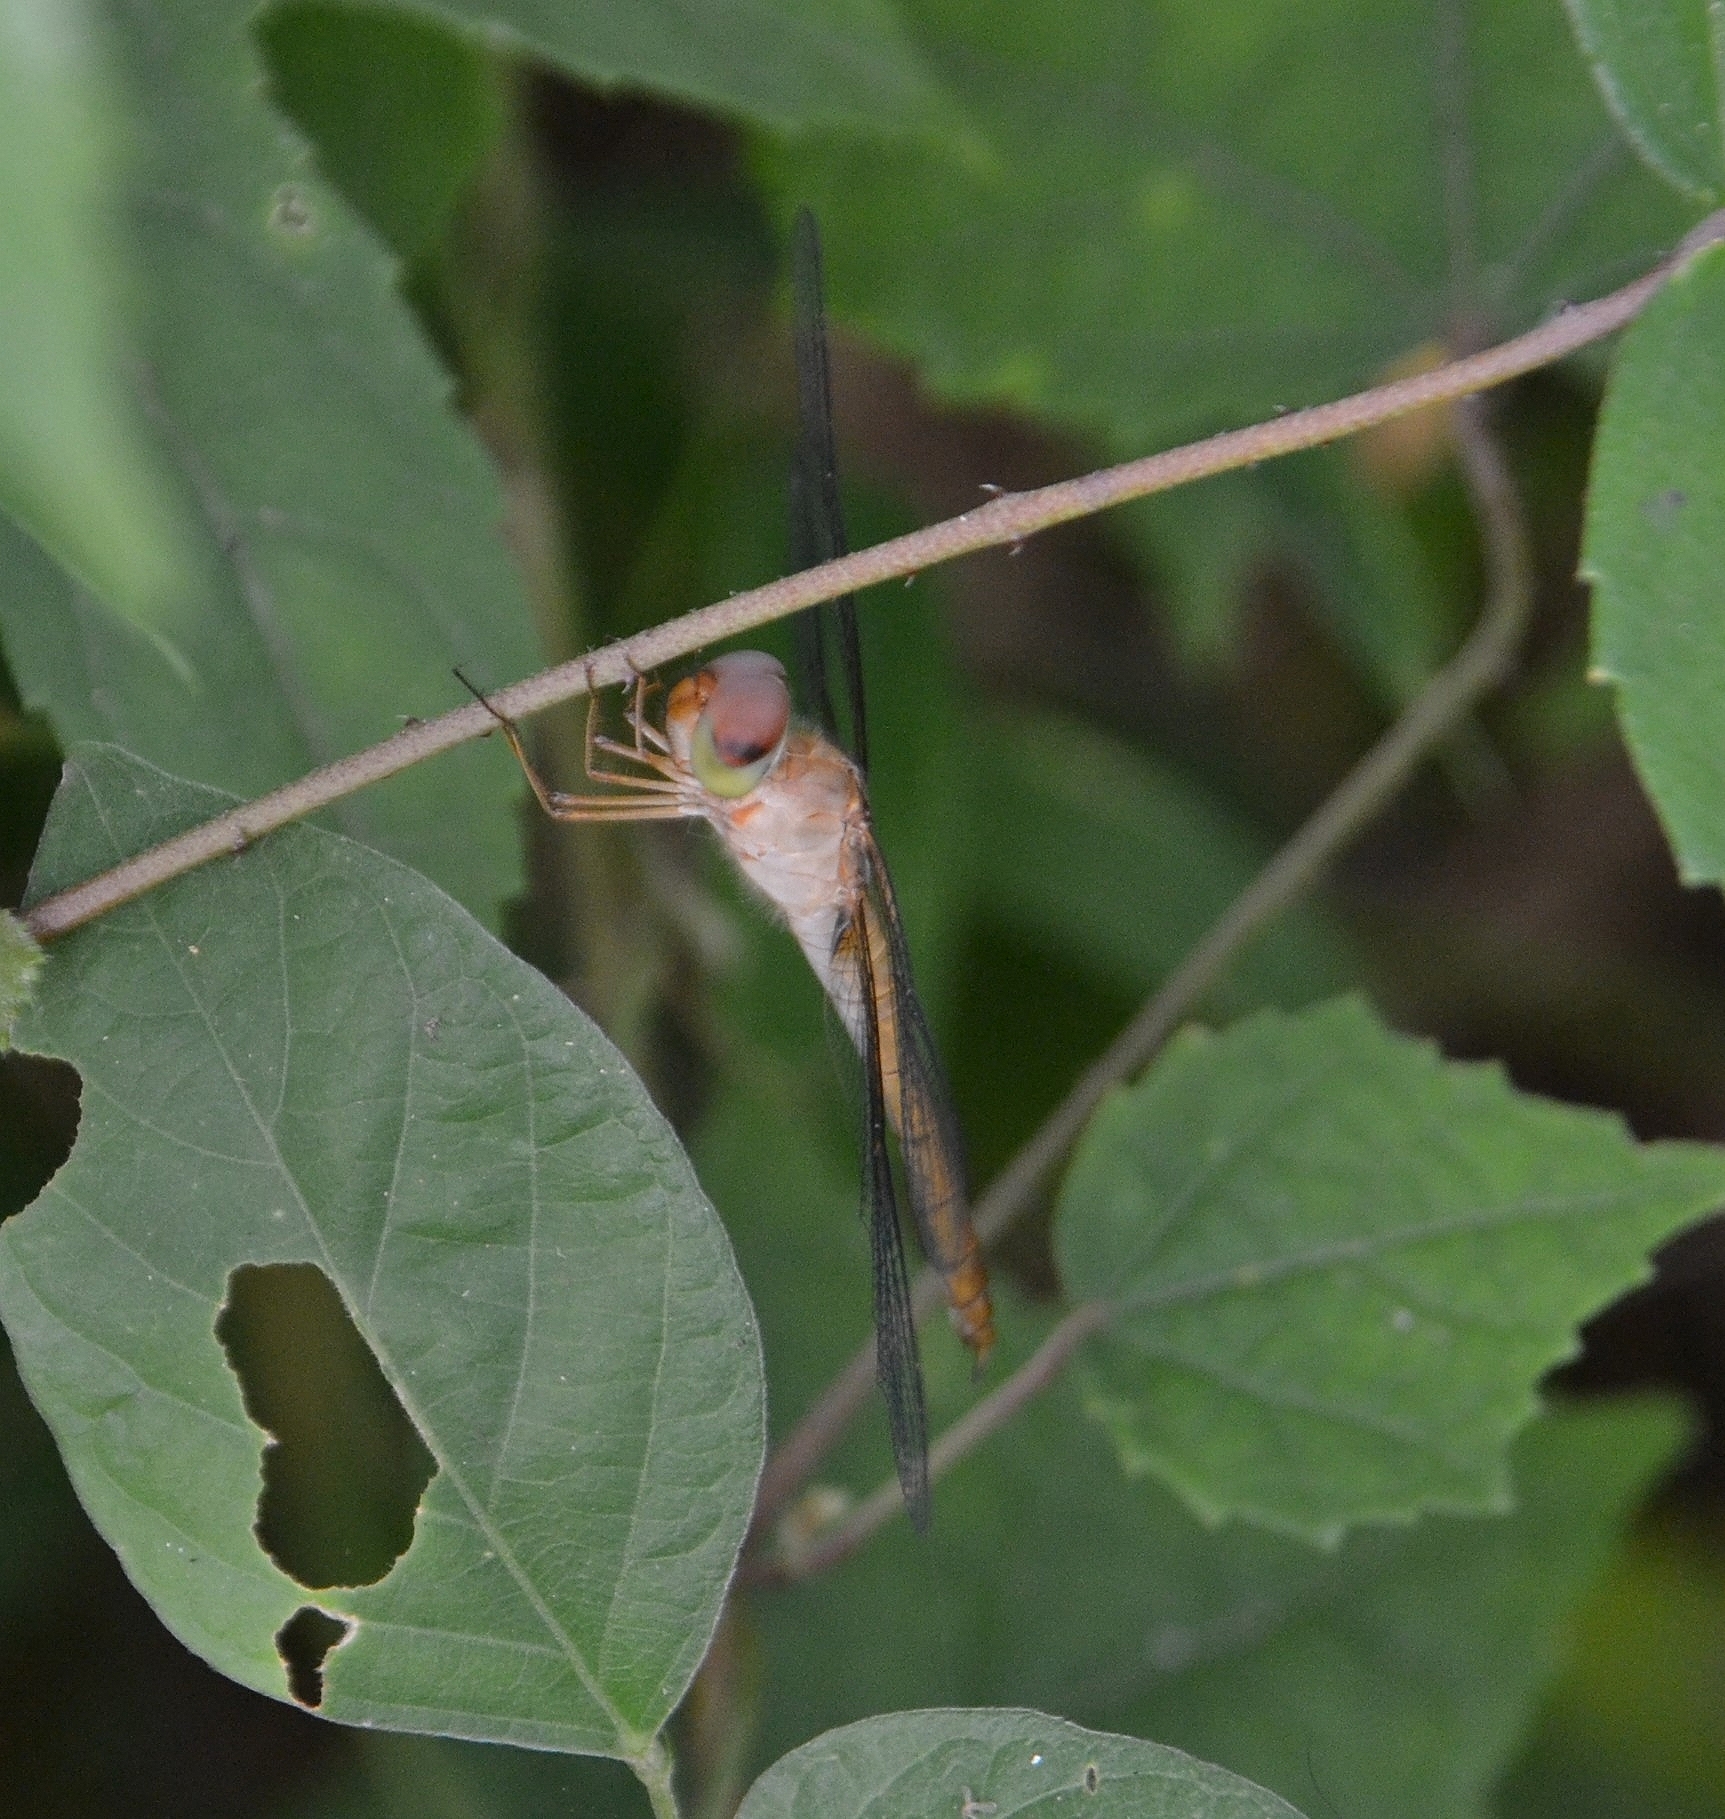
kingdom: Animalia
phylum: Arthropoda
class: Insecta
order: Odonata
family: Libellulidae
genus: Tholymis
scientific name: Tholymis tillarga
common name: Coral-tailed cloud wing
